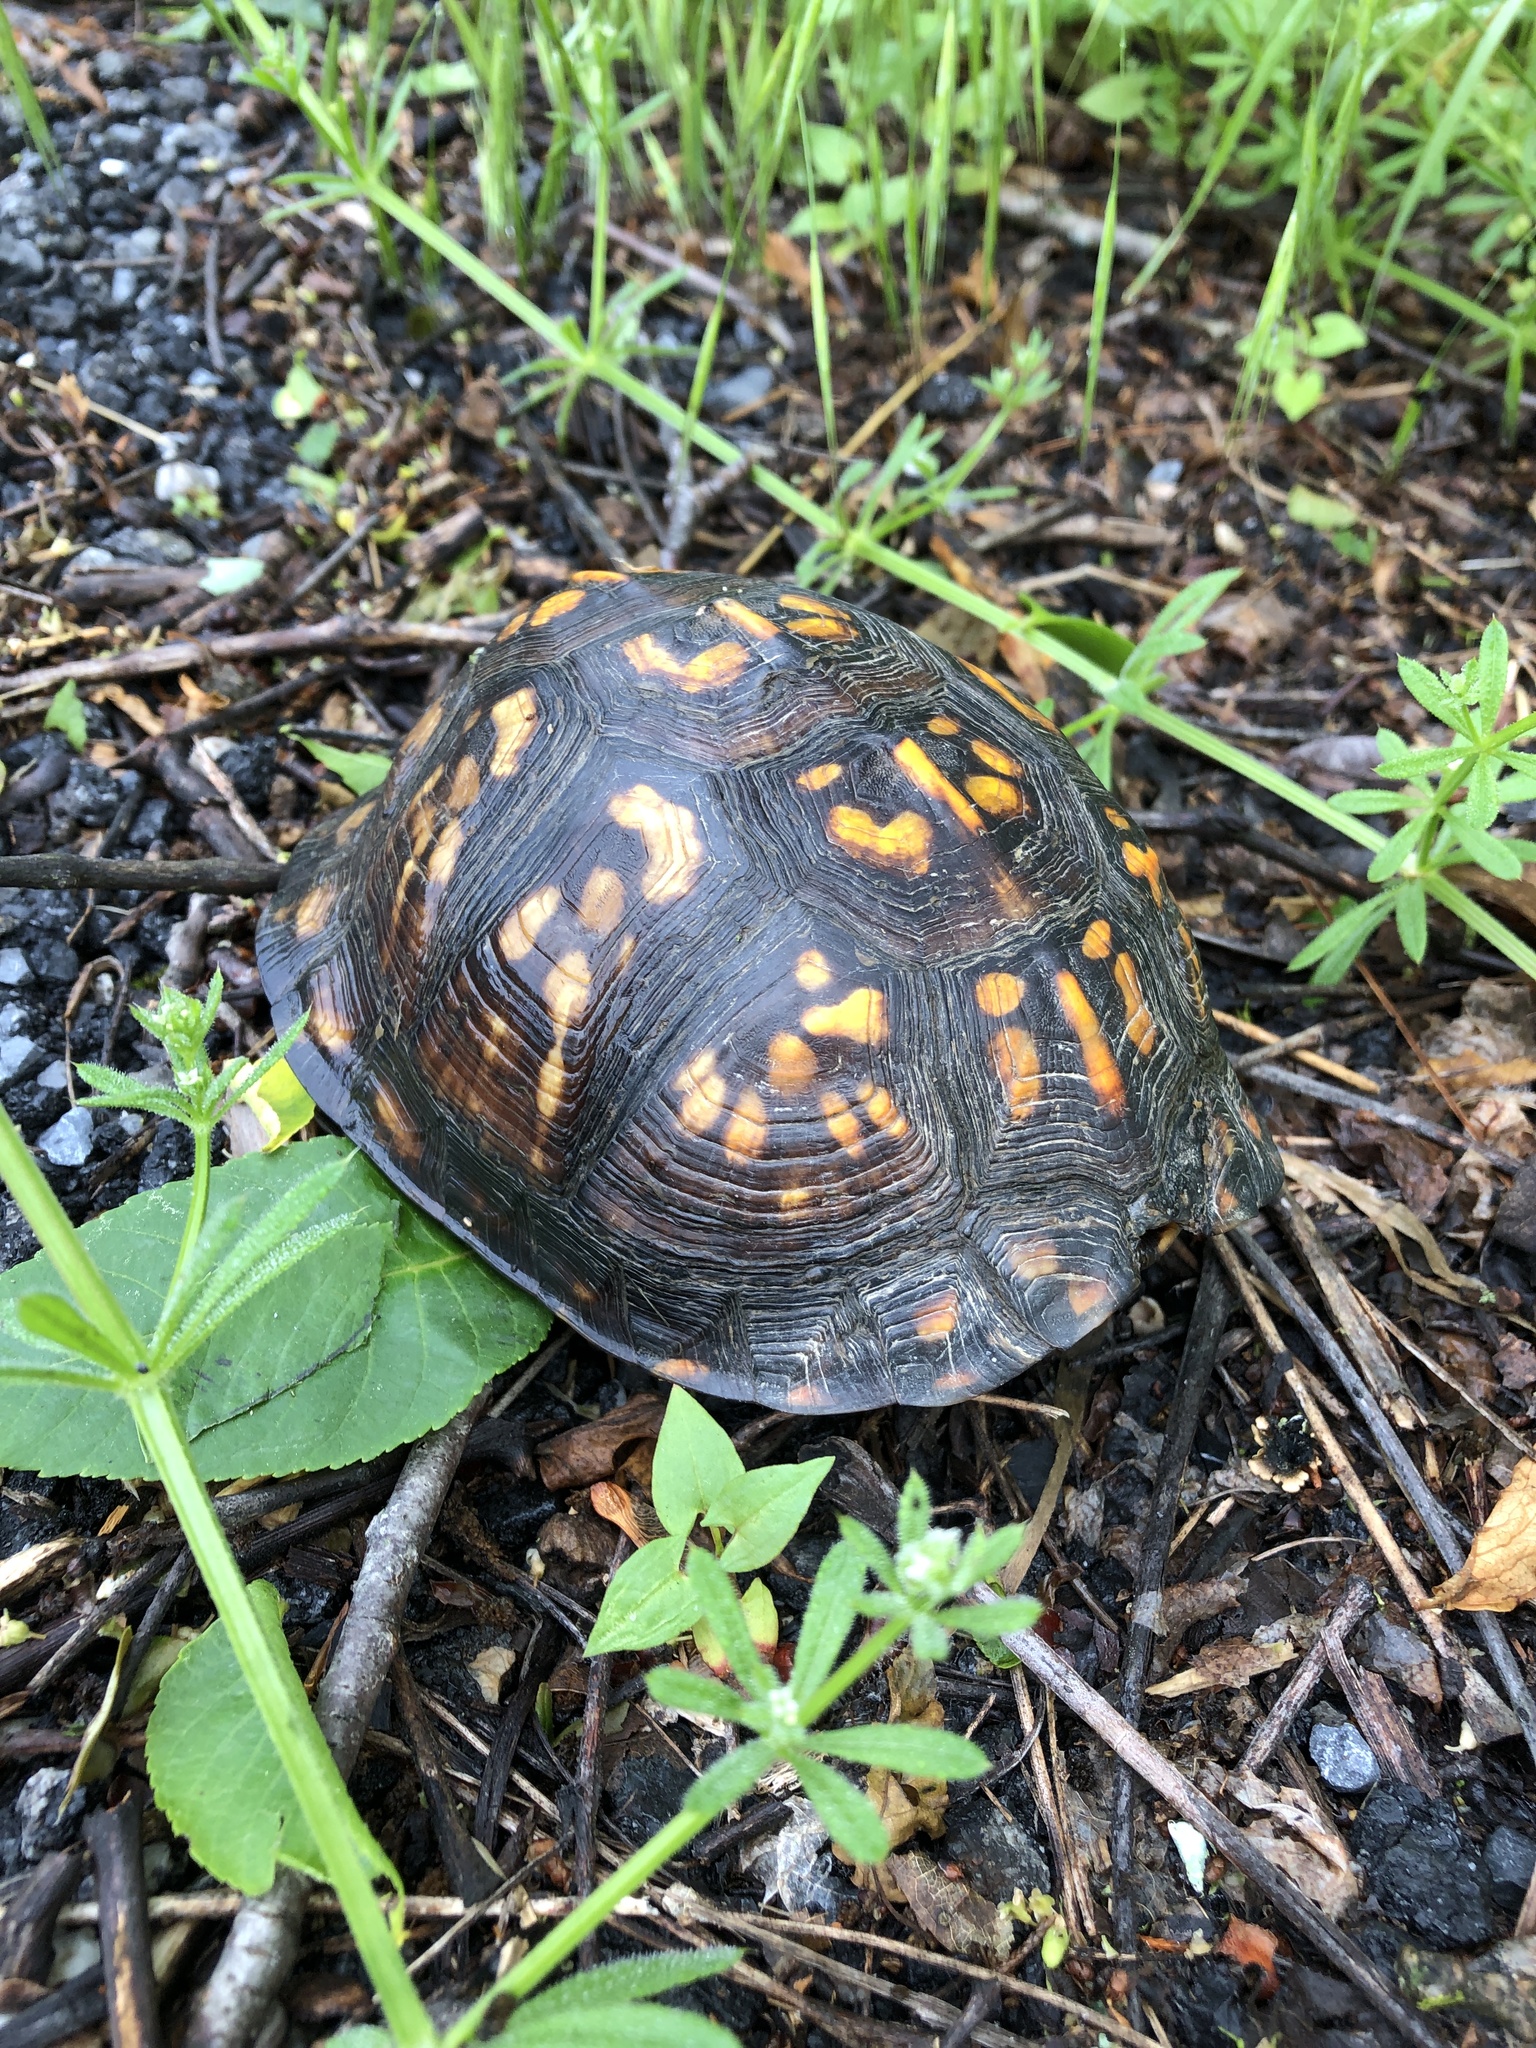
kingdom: Animalia
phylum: Chordata
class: Testudines
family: Emydidae
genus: Terrapene
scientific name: Terrapene carolina
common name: Common box turtle
